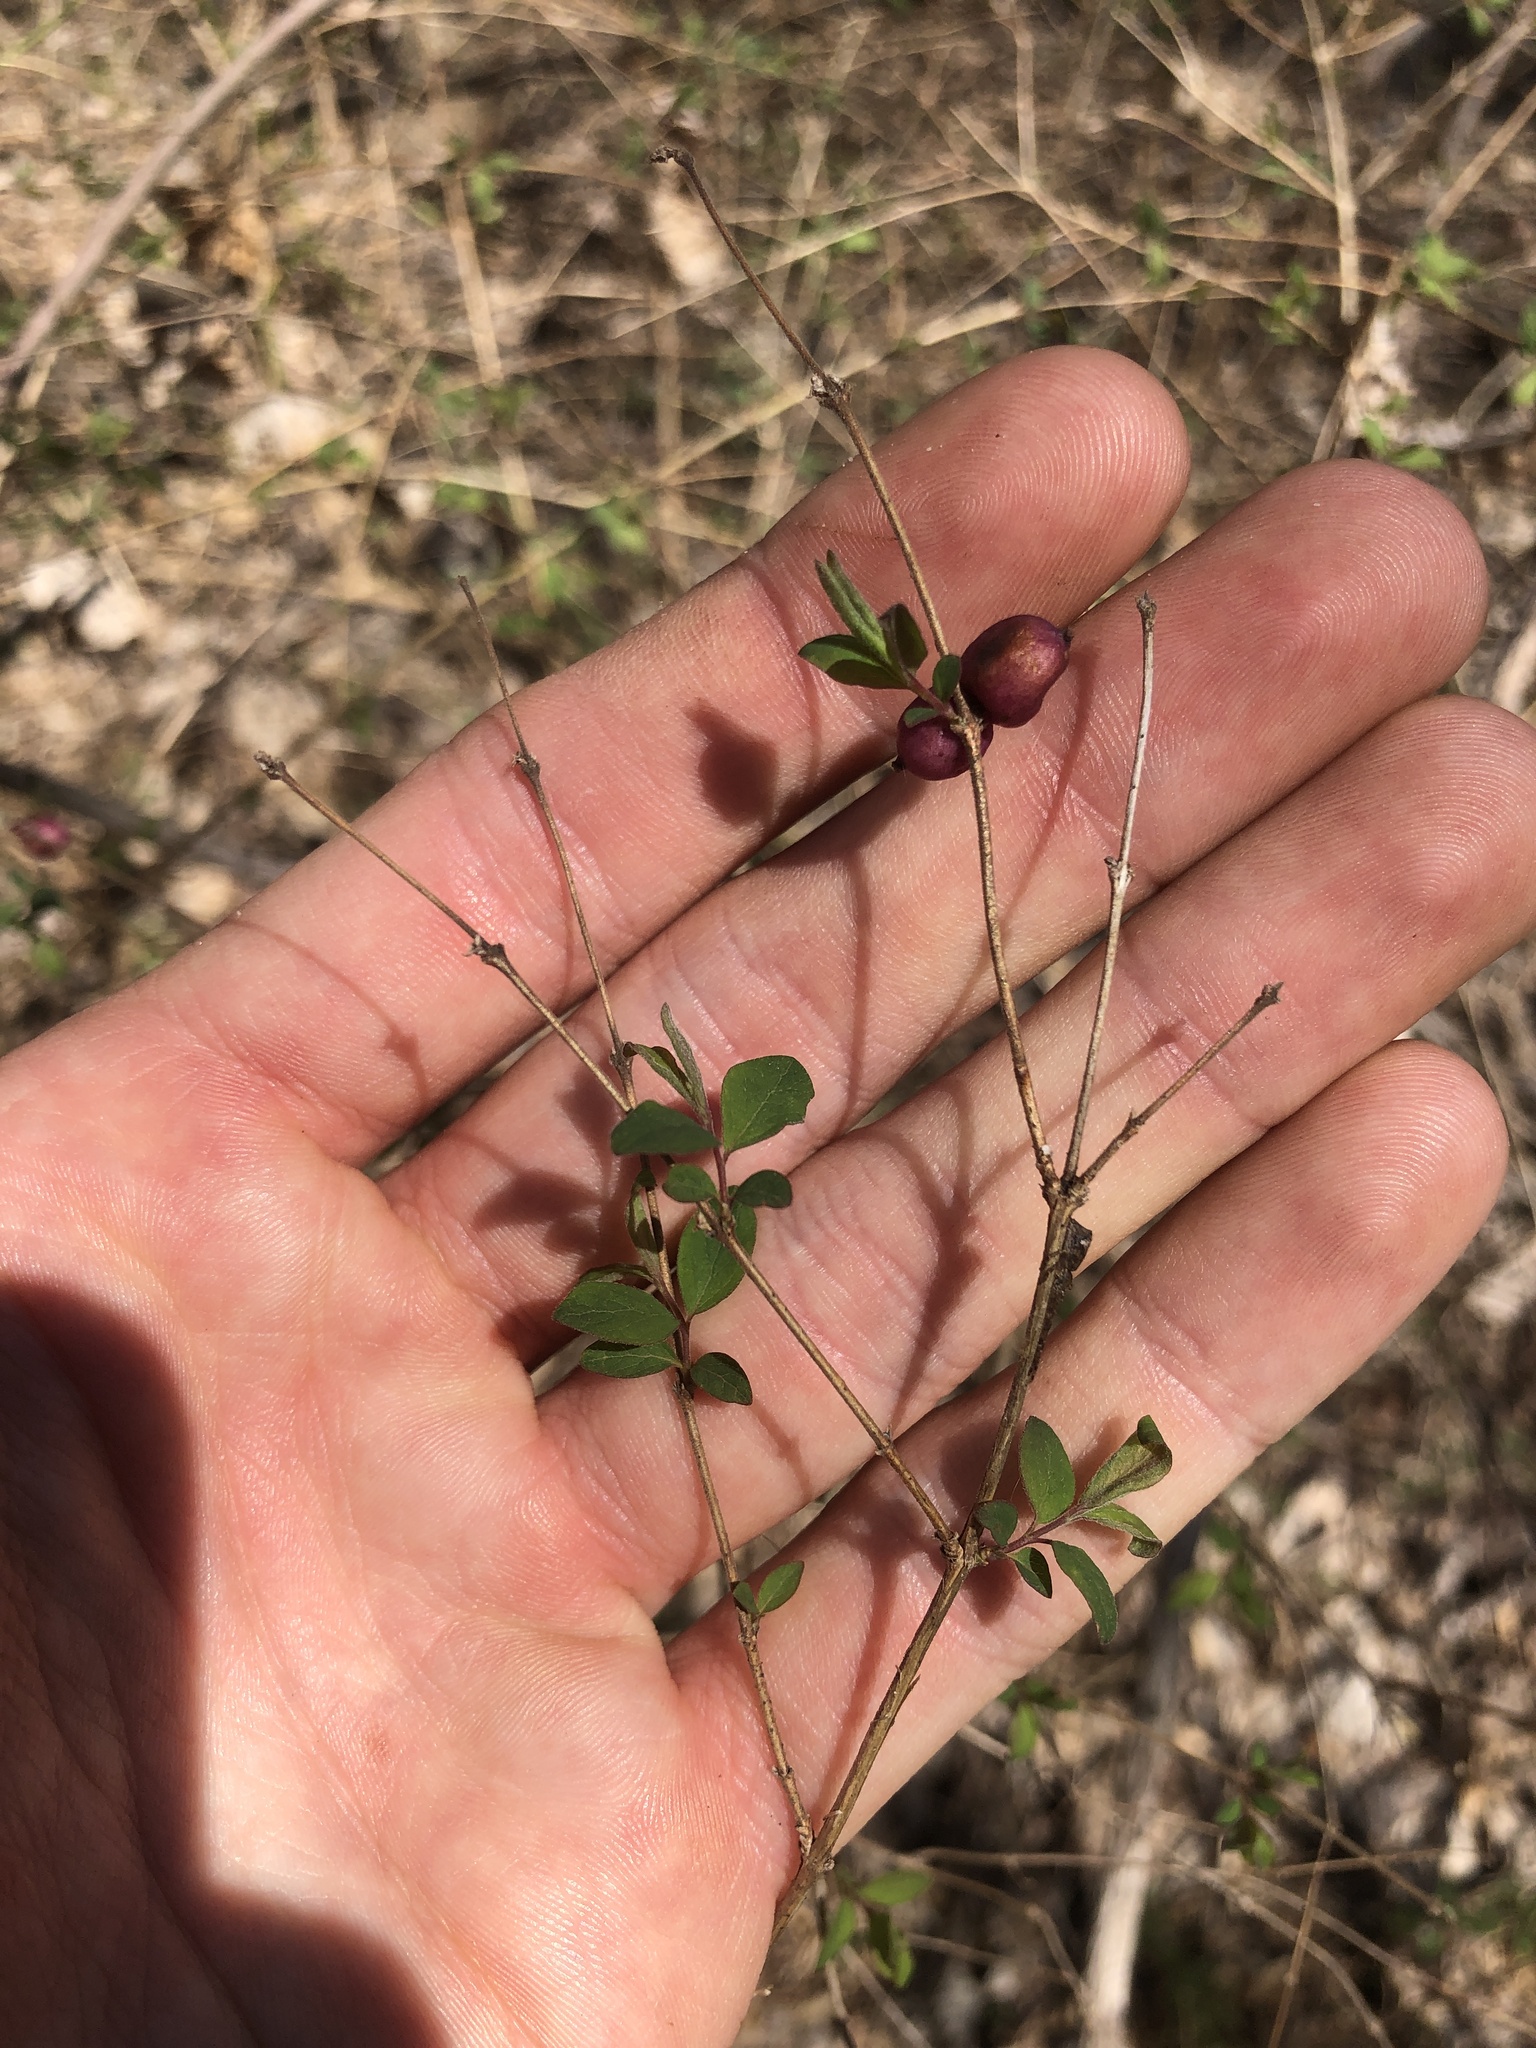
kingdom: Plantae
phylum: Tracheophyta
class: Magnoliopsida
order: Dipsacales
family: Caprifoliaceae
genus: Symphoricarpos
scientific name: Symphoricarpos orbiculatus
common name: Coralberry
